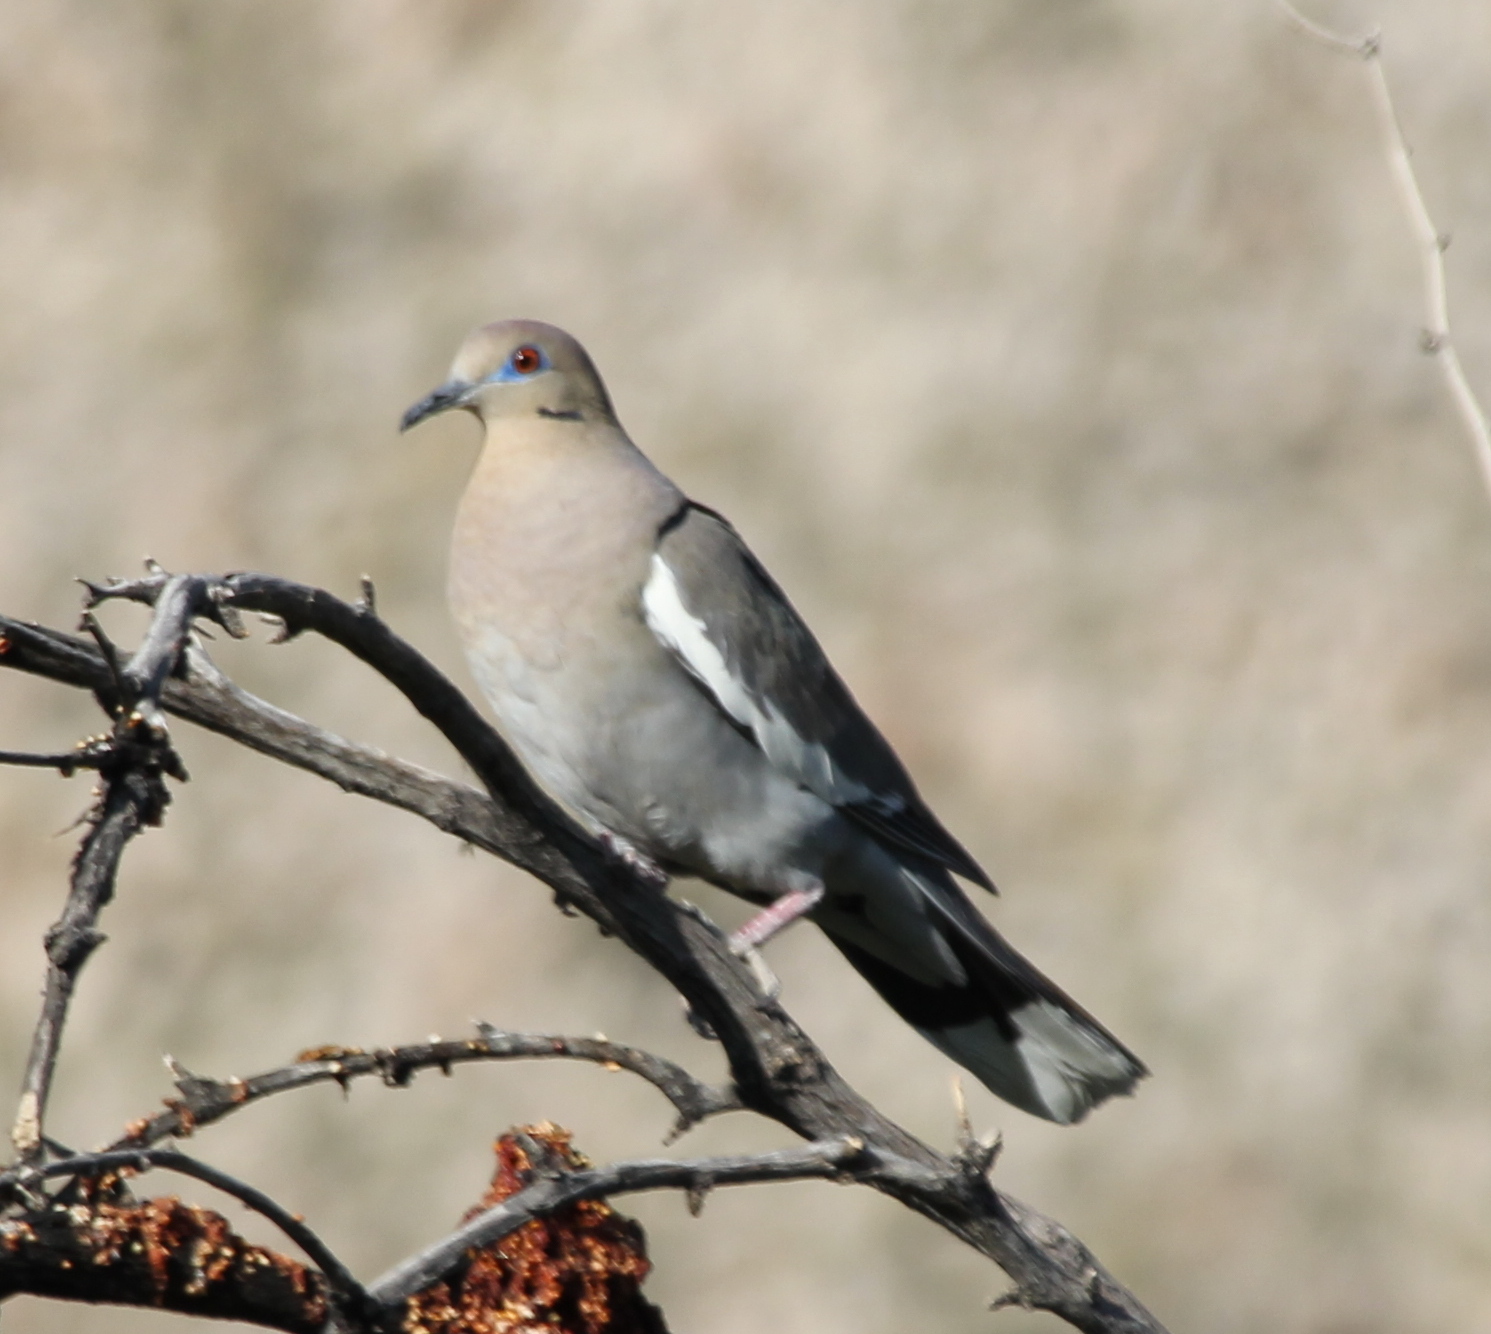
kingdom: Animalia
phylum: Chordata
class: Aves
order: Columbiformes
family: Columbidae
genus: Zenaida
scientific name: Zenaida asiatica
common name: White-winged dove
